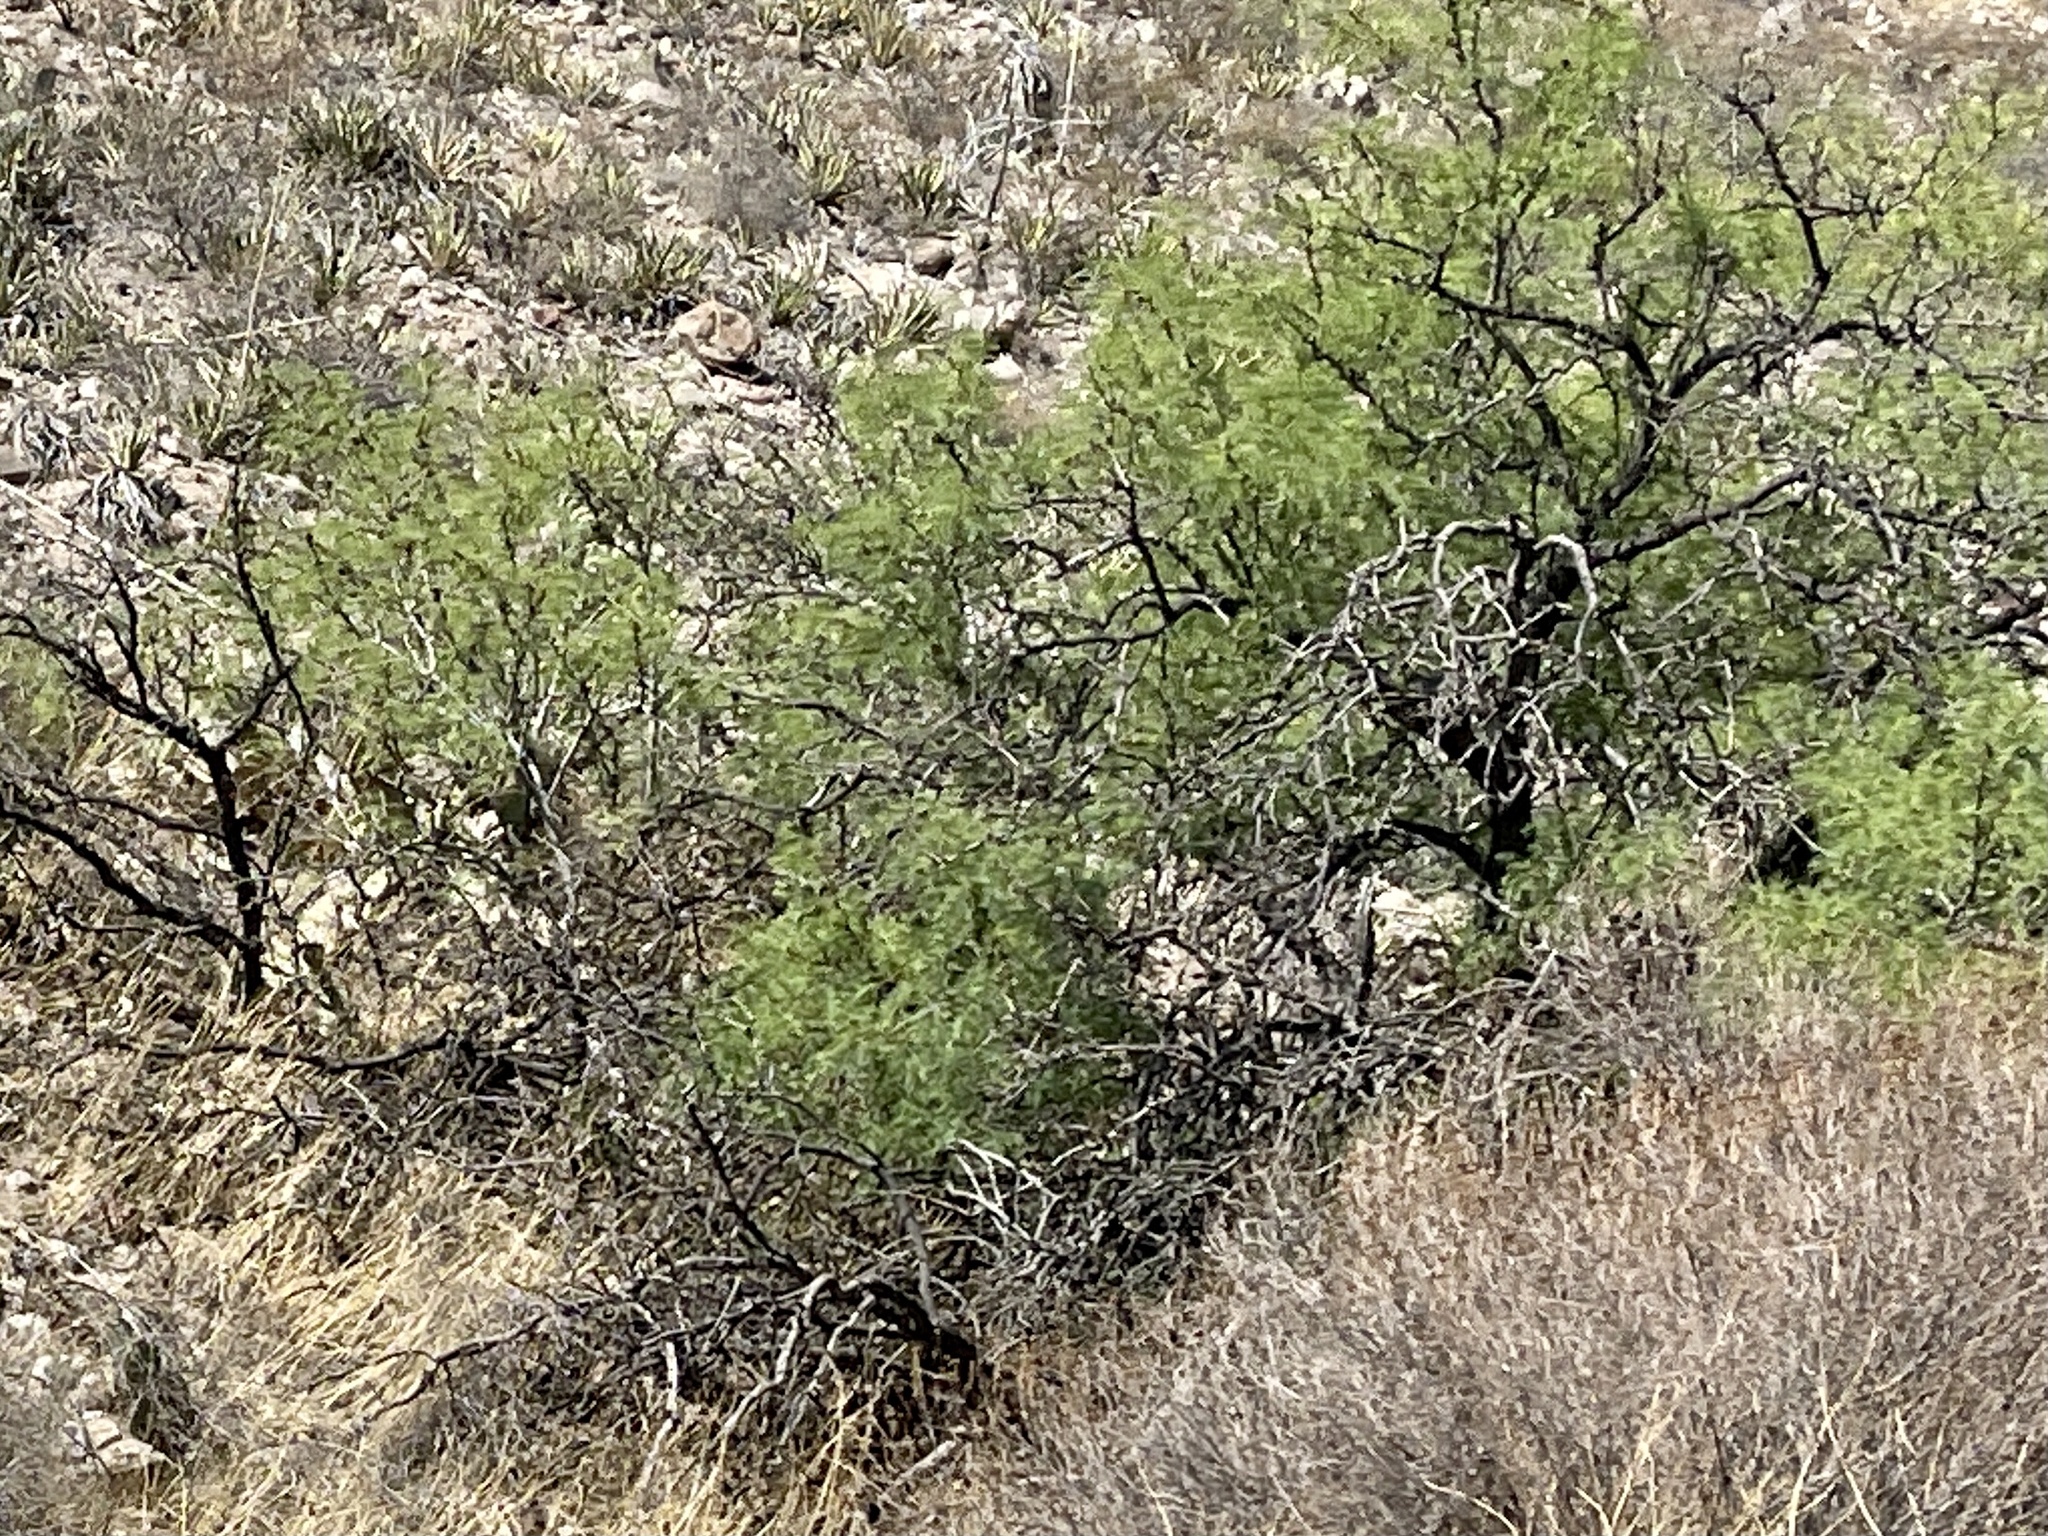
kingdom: Plantae
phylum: Tracheophyta
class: Magnoliopsida
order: Fabales
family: Fabaceae
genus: Prosopis
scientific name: Prosopis glandulosa
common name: Honey mesquite
